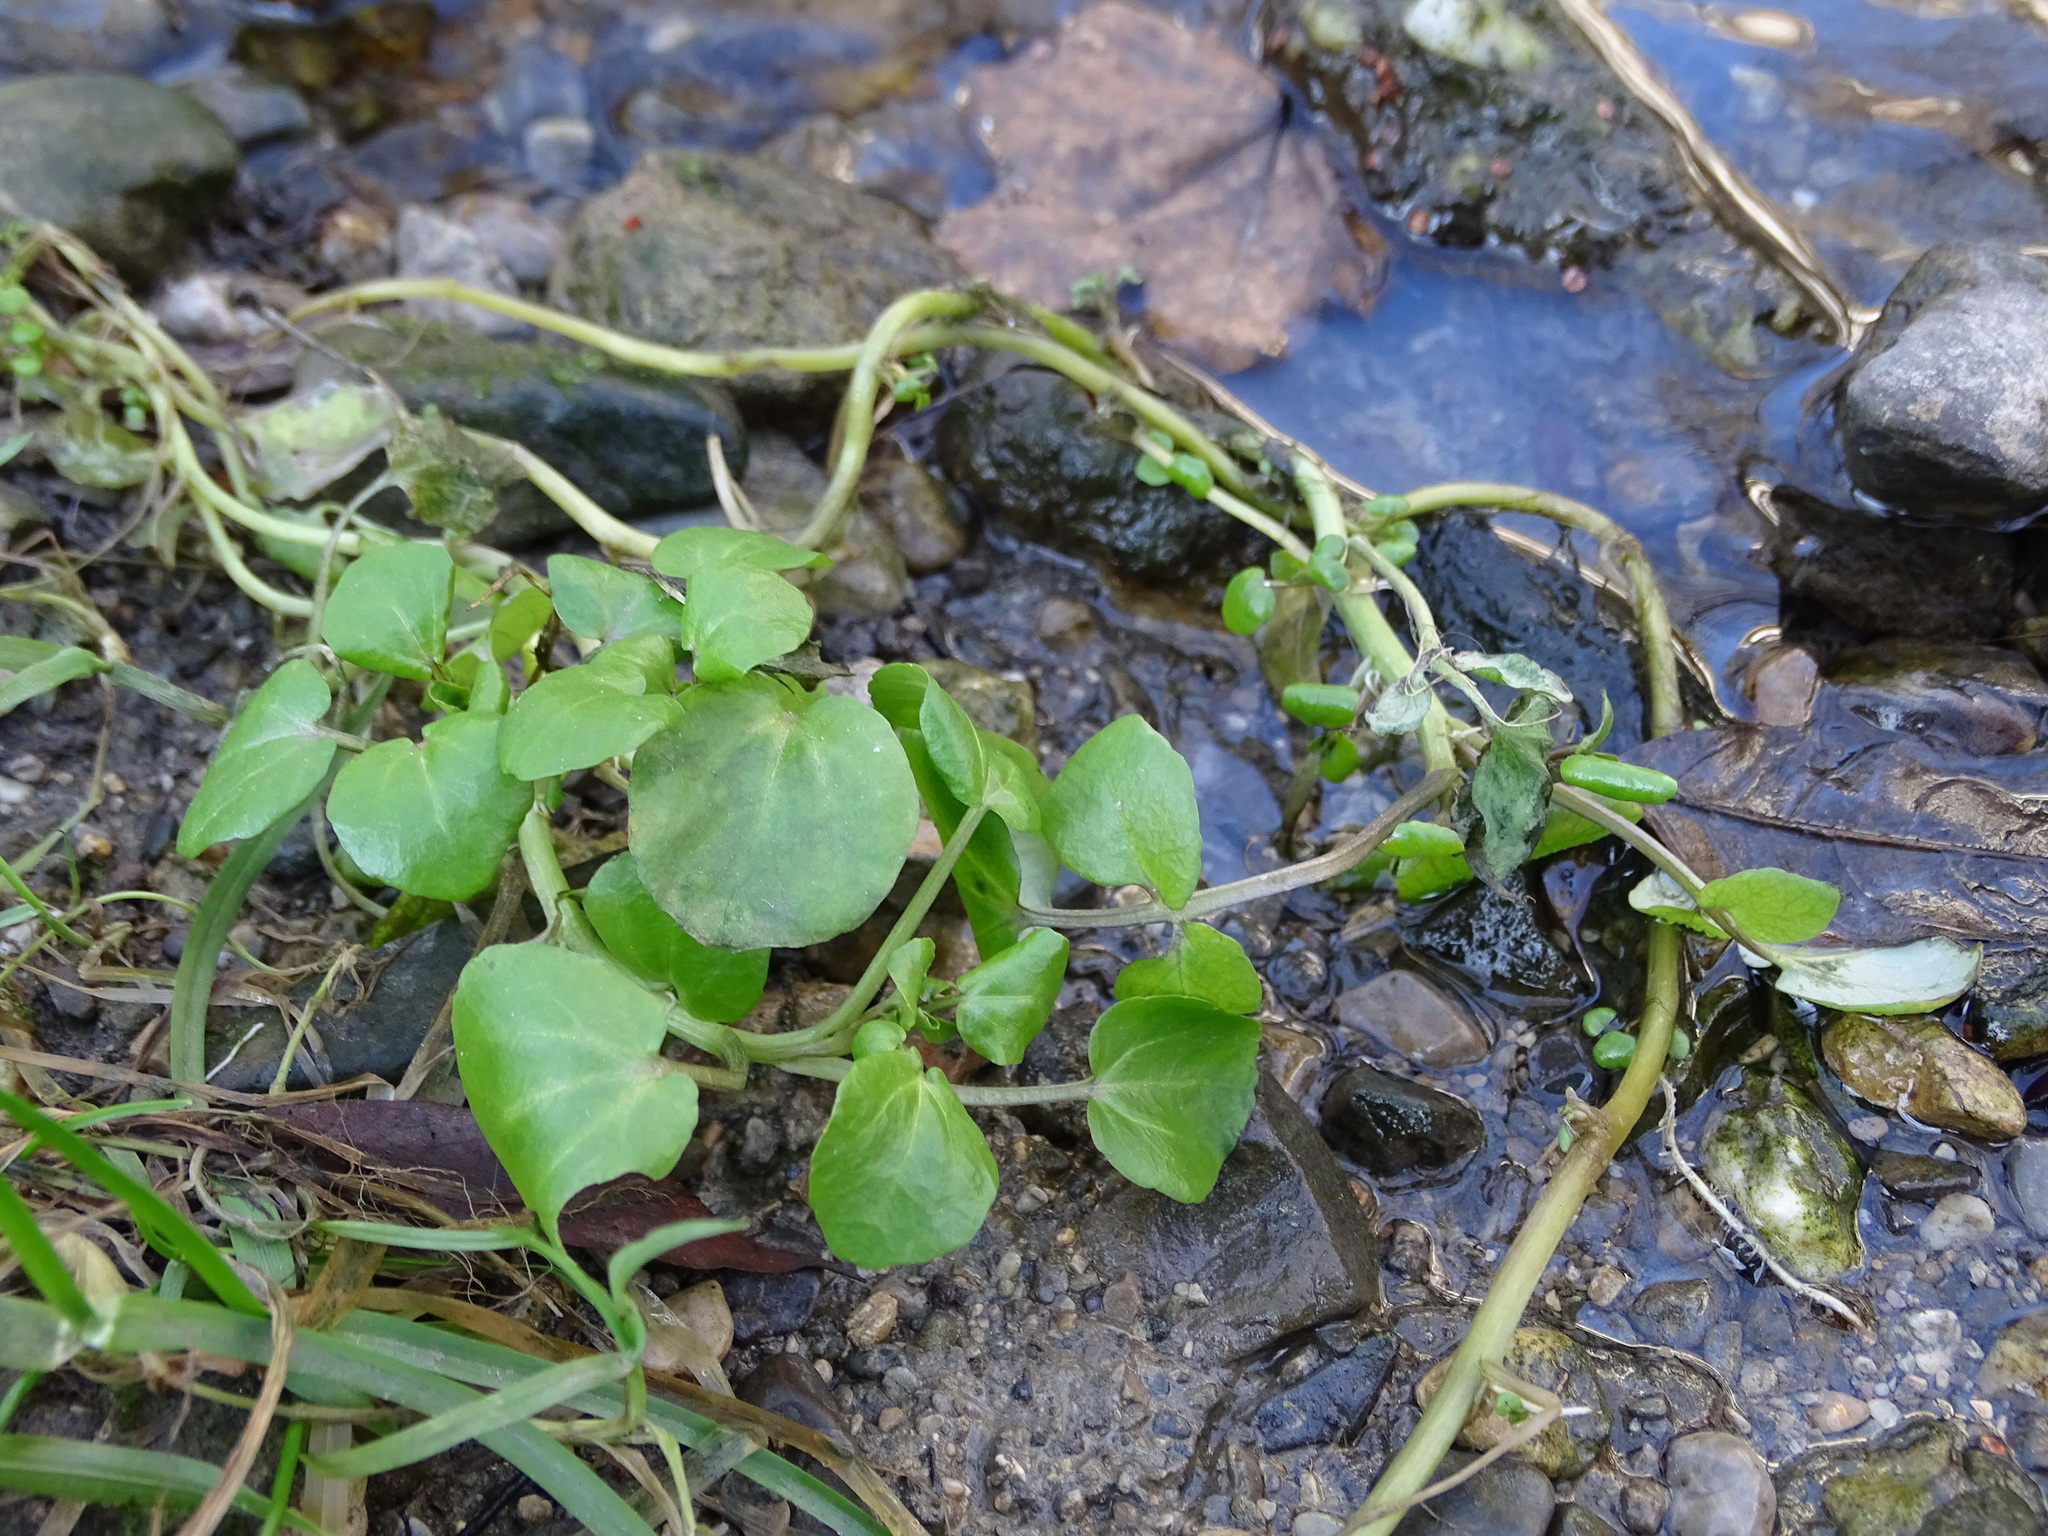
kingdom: Plantae
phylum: Tracheophyta
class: Magnoliopsida
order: Brassicales
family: Brassicaceae
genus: Nasturtium
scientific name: Nasturtium officinale
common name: Watercress
